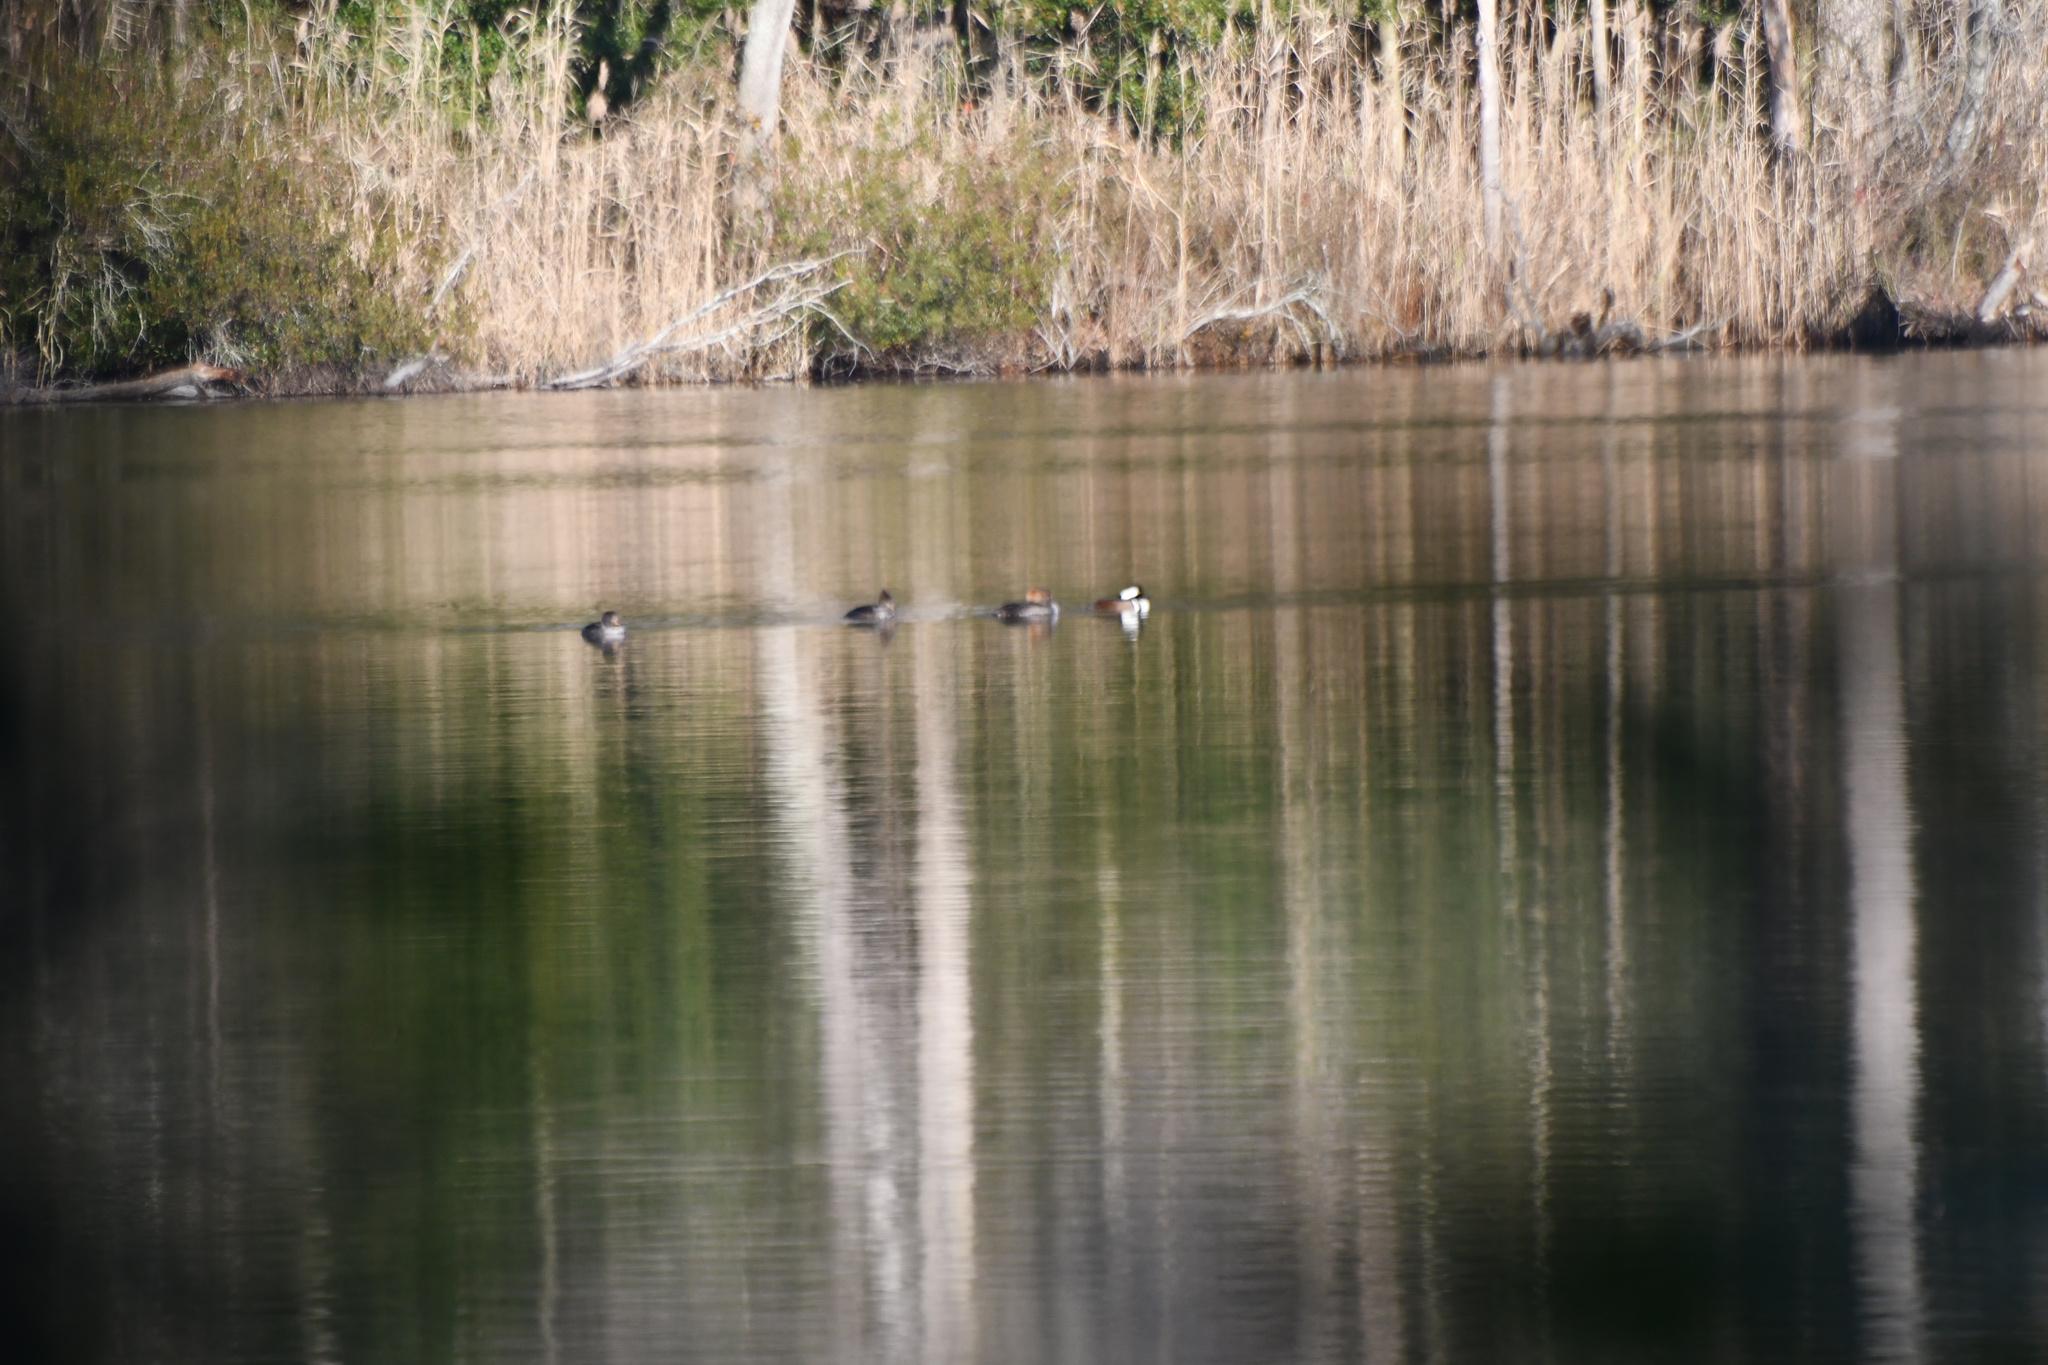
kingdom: Animalia
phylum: Chordata
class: Aves
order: Anseriformes
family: Anatidae
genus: Lophodytes
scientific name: Lophodytes cucullatus
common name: Hooded merganser
